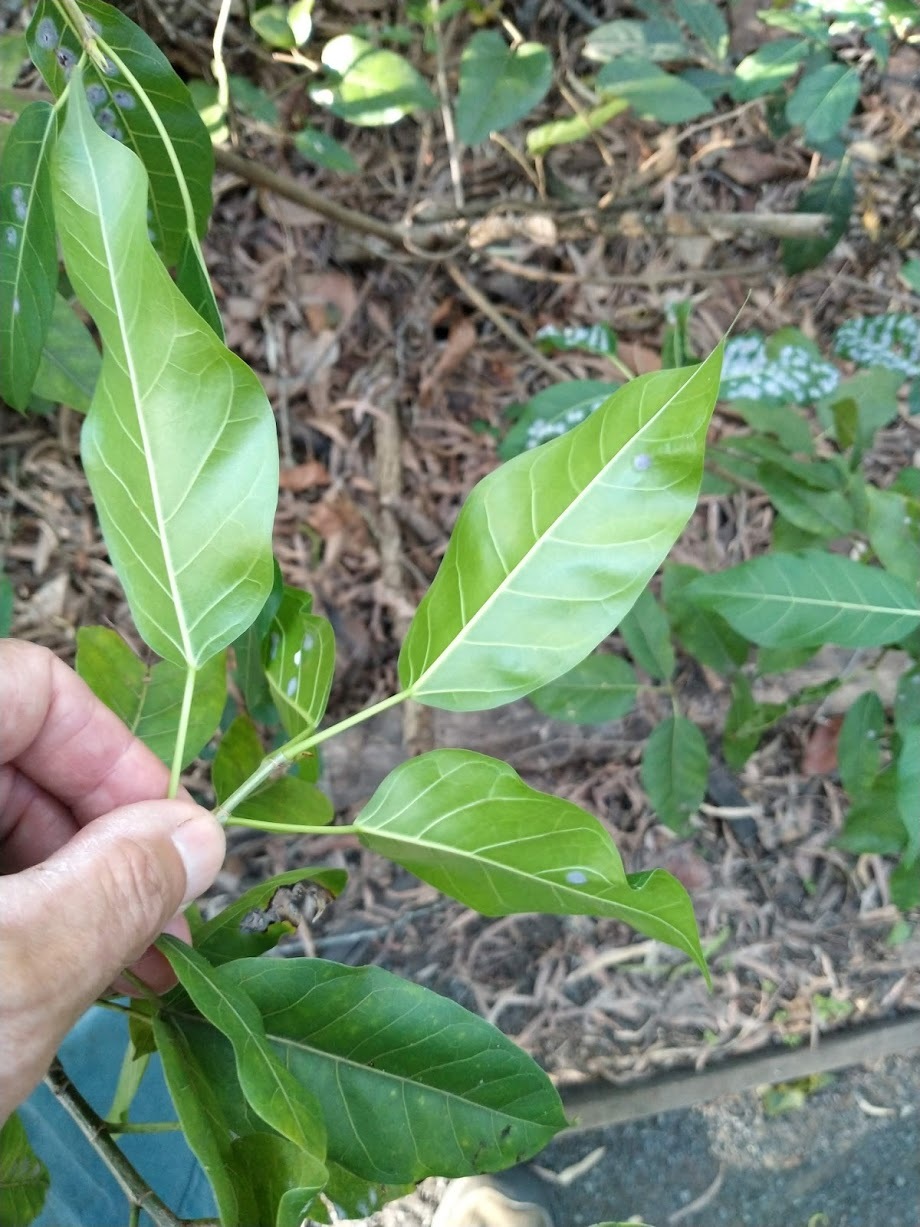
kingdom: Plantae
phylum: Tracheophyta
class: Magnoliopsida
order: Rosales
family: Moraceae
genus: Ficus
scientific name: Ficus virens
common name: Spotted fig
